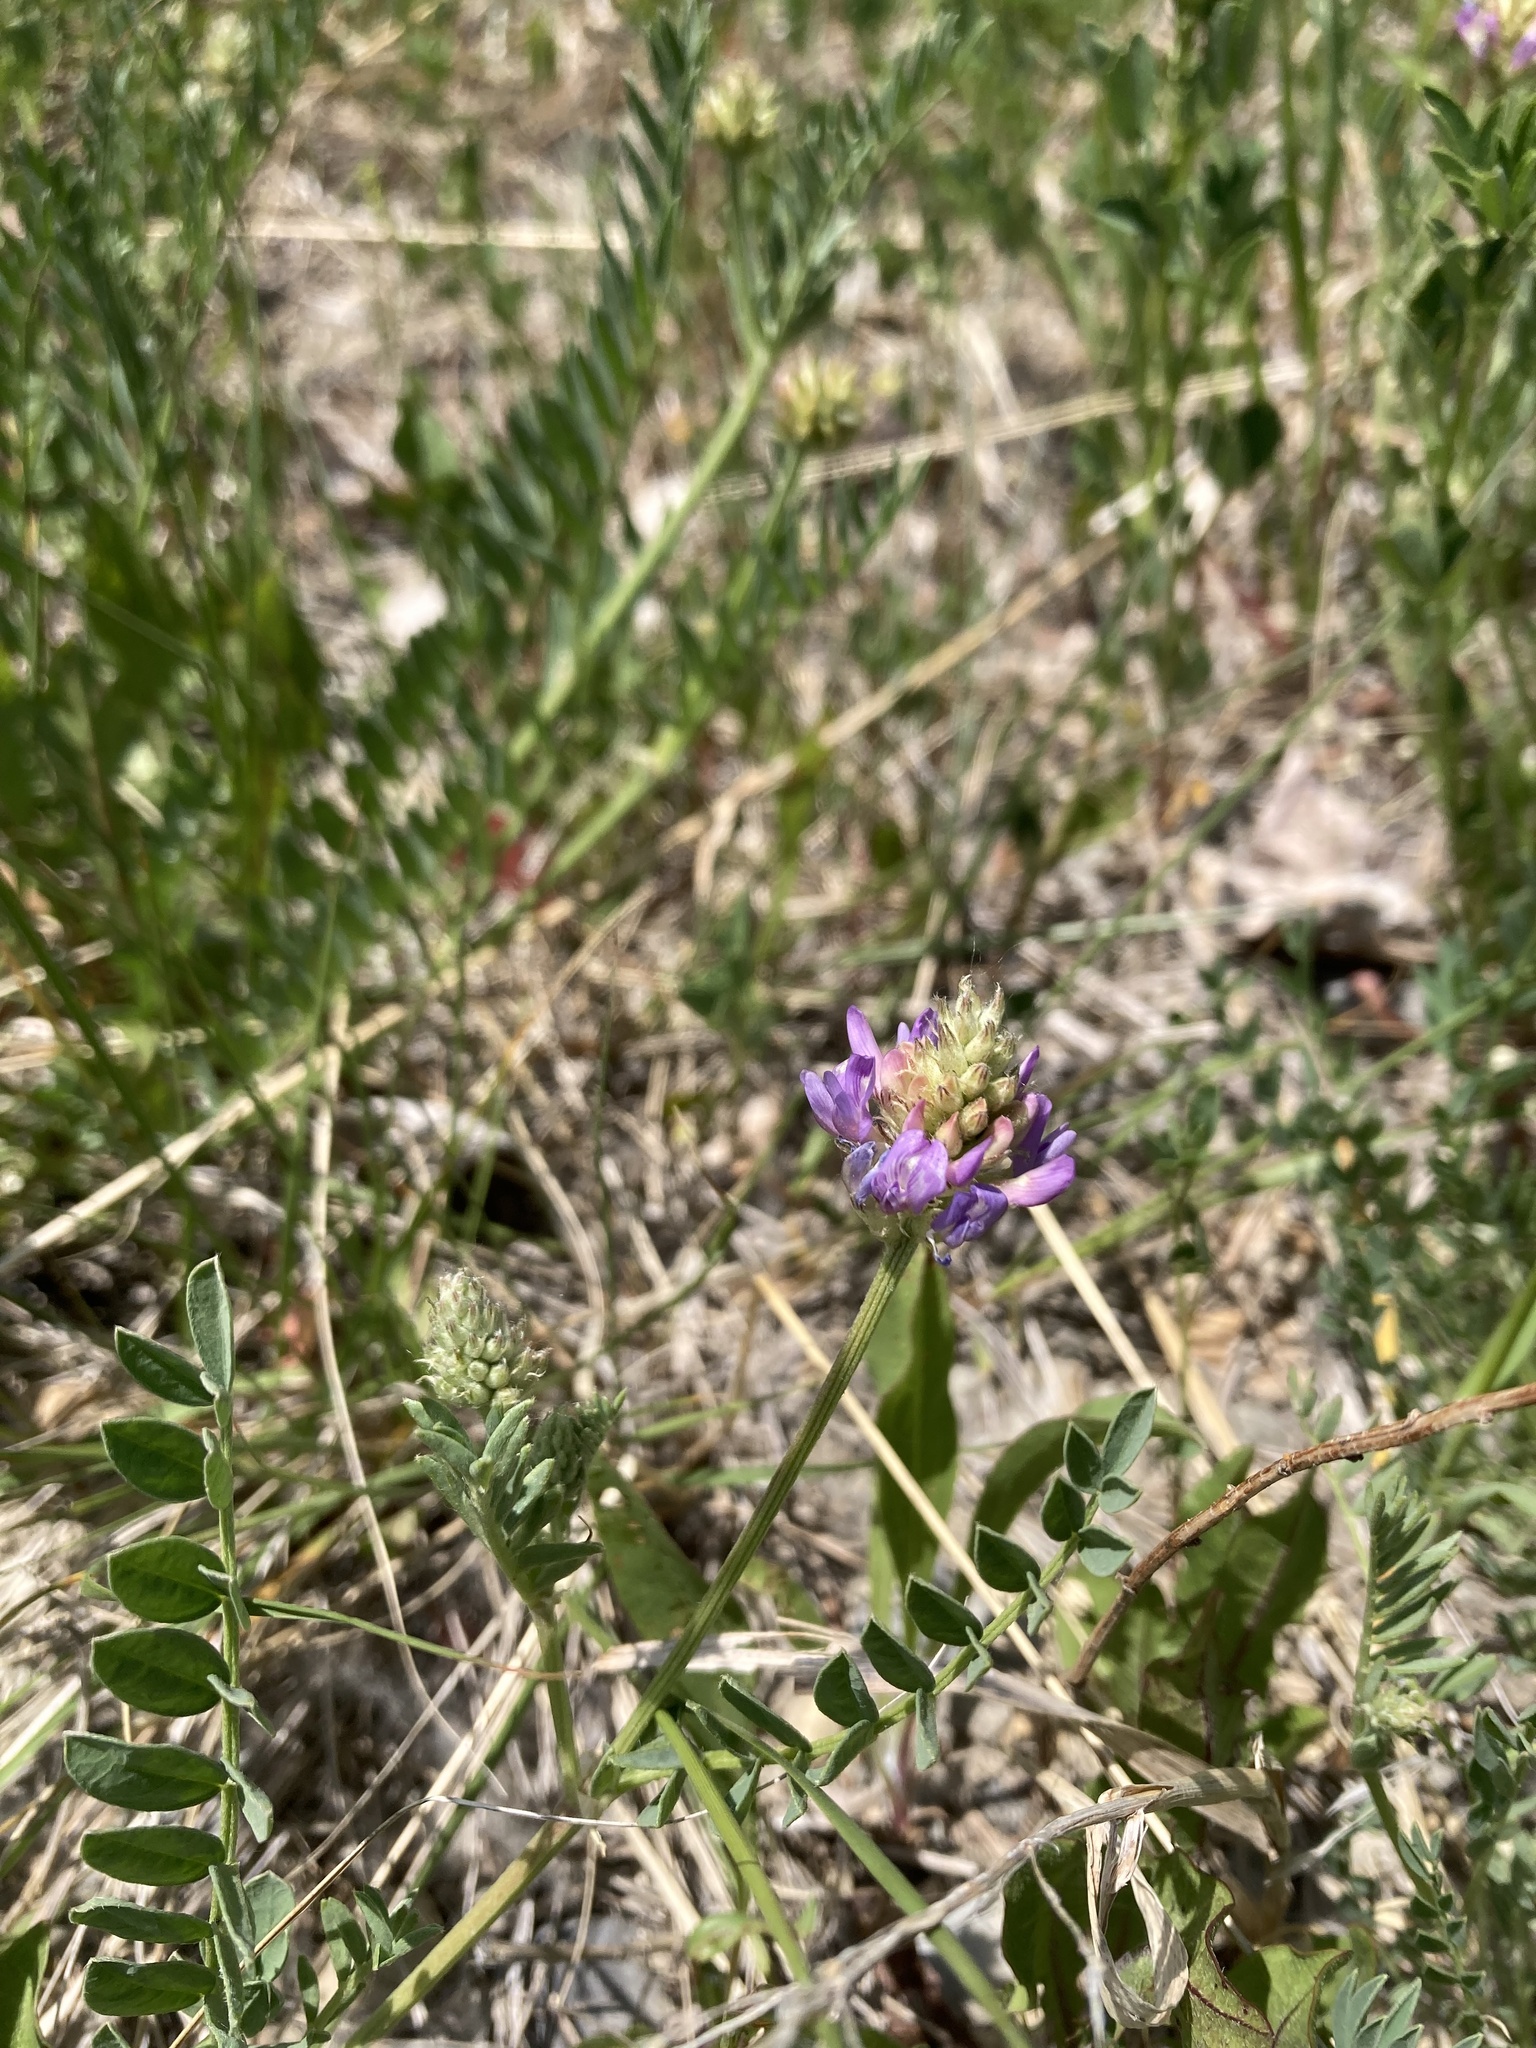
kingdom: Plantae
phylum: Tracheophyta
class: Magnoliopsida
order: Fabales
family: Fabaceae
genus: Astragalus
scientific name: Astragalus laxmannii
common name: Laxmann's milk-vetch
